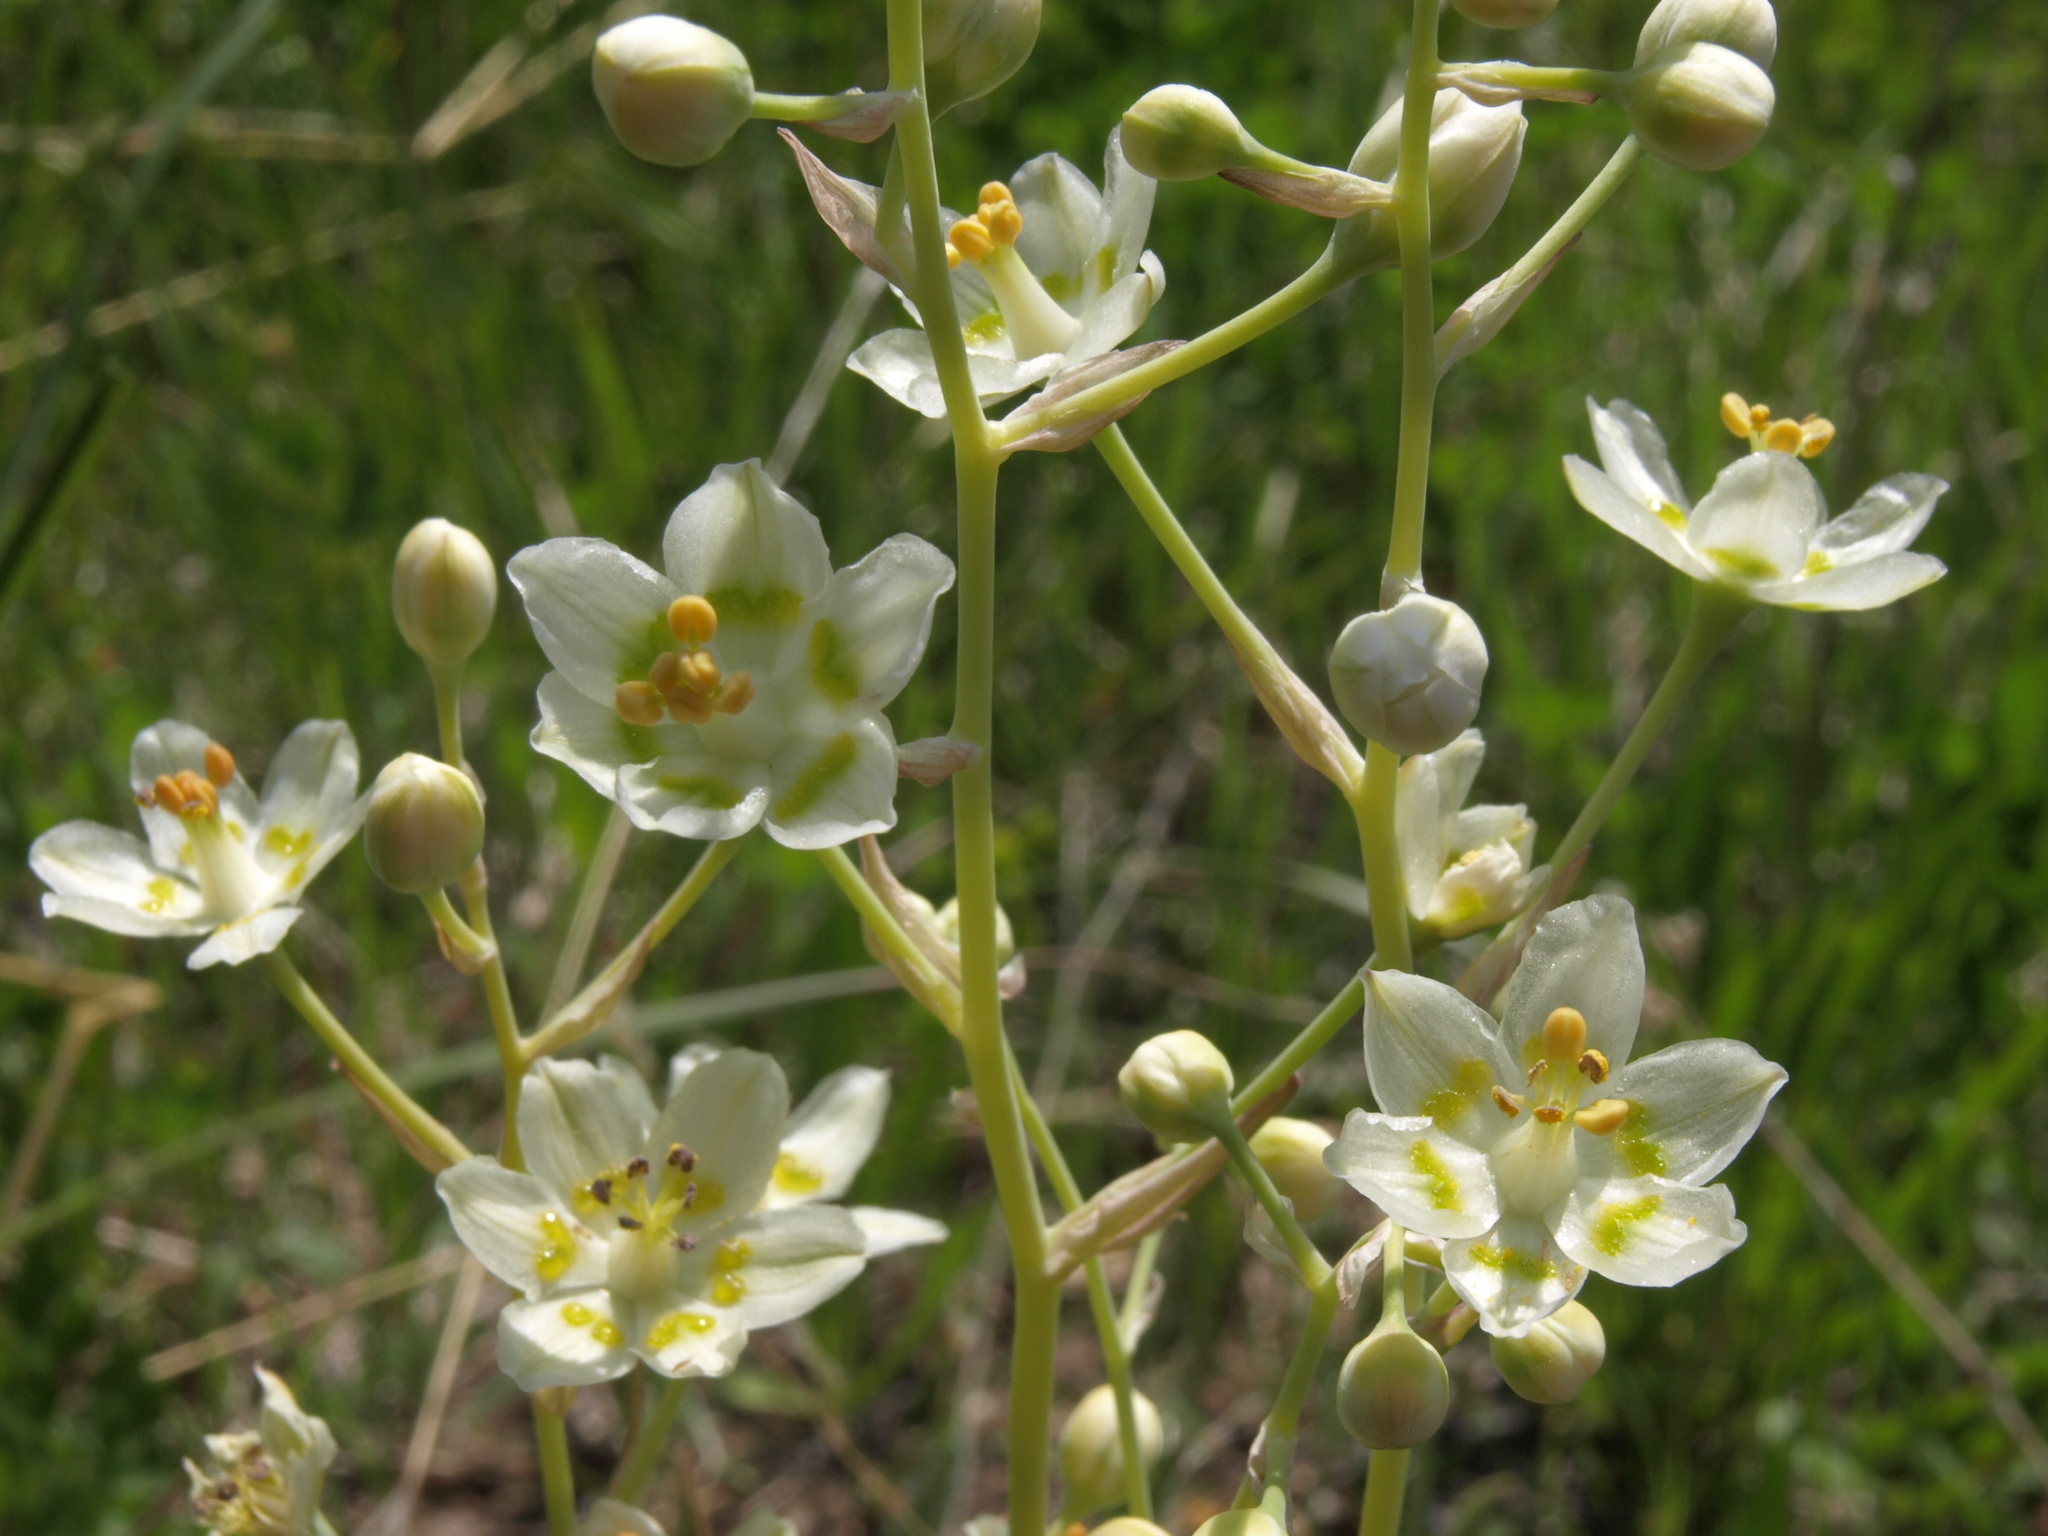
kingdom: Plantae
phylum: Tracheophyta
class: Liliopsida
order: Liliales
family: Melanthiaceae
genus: Anticlea
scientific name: Anticlea elegans
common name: Mountain death camas
